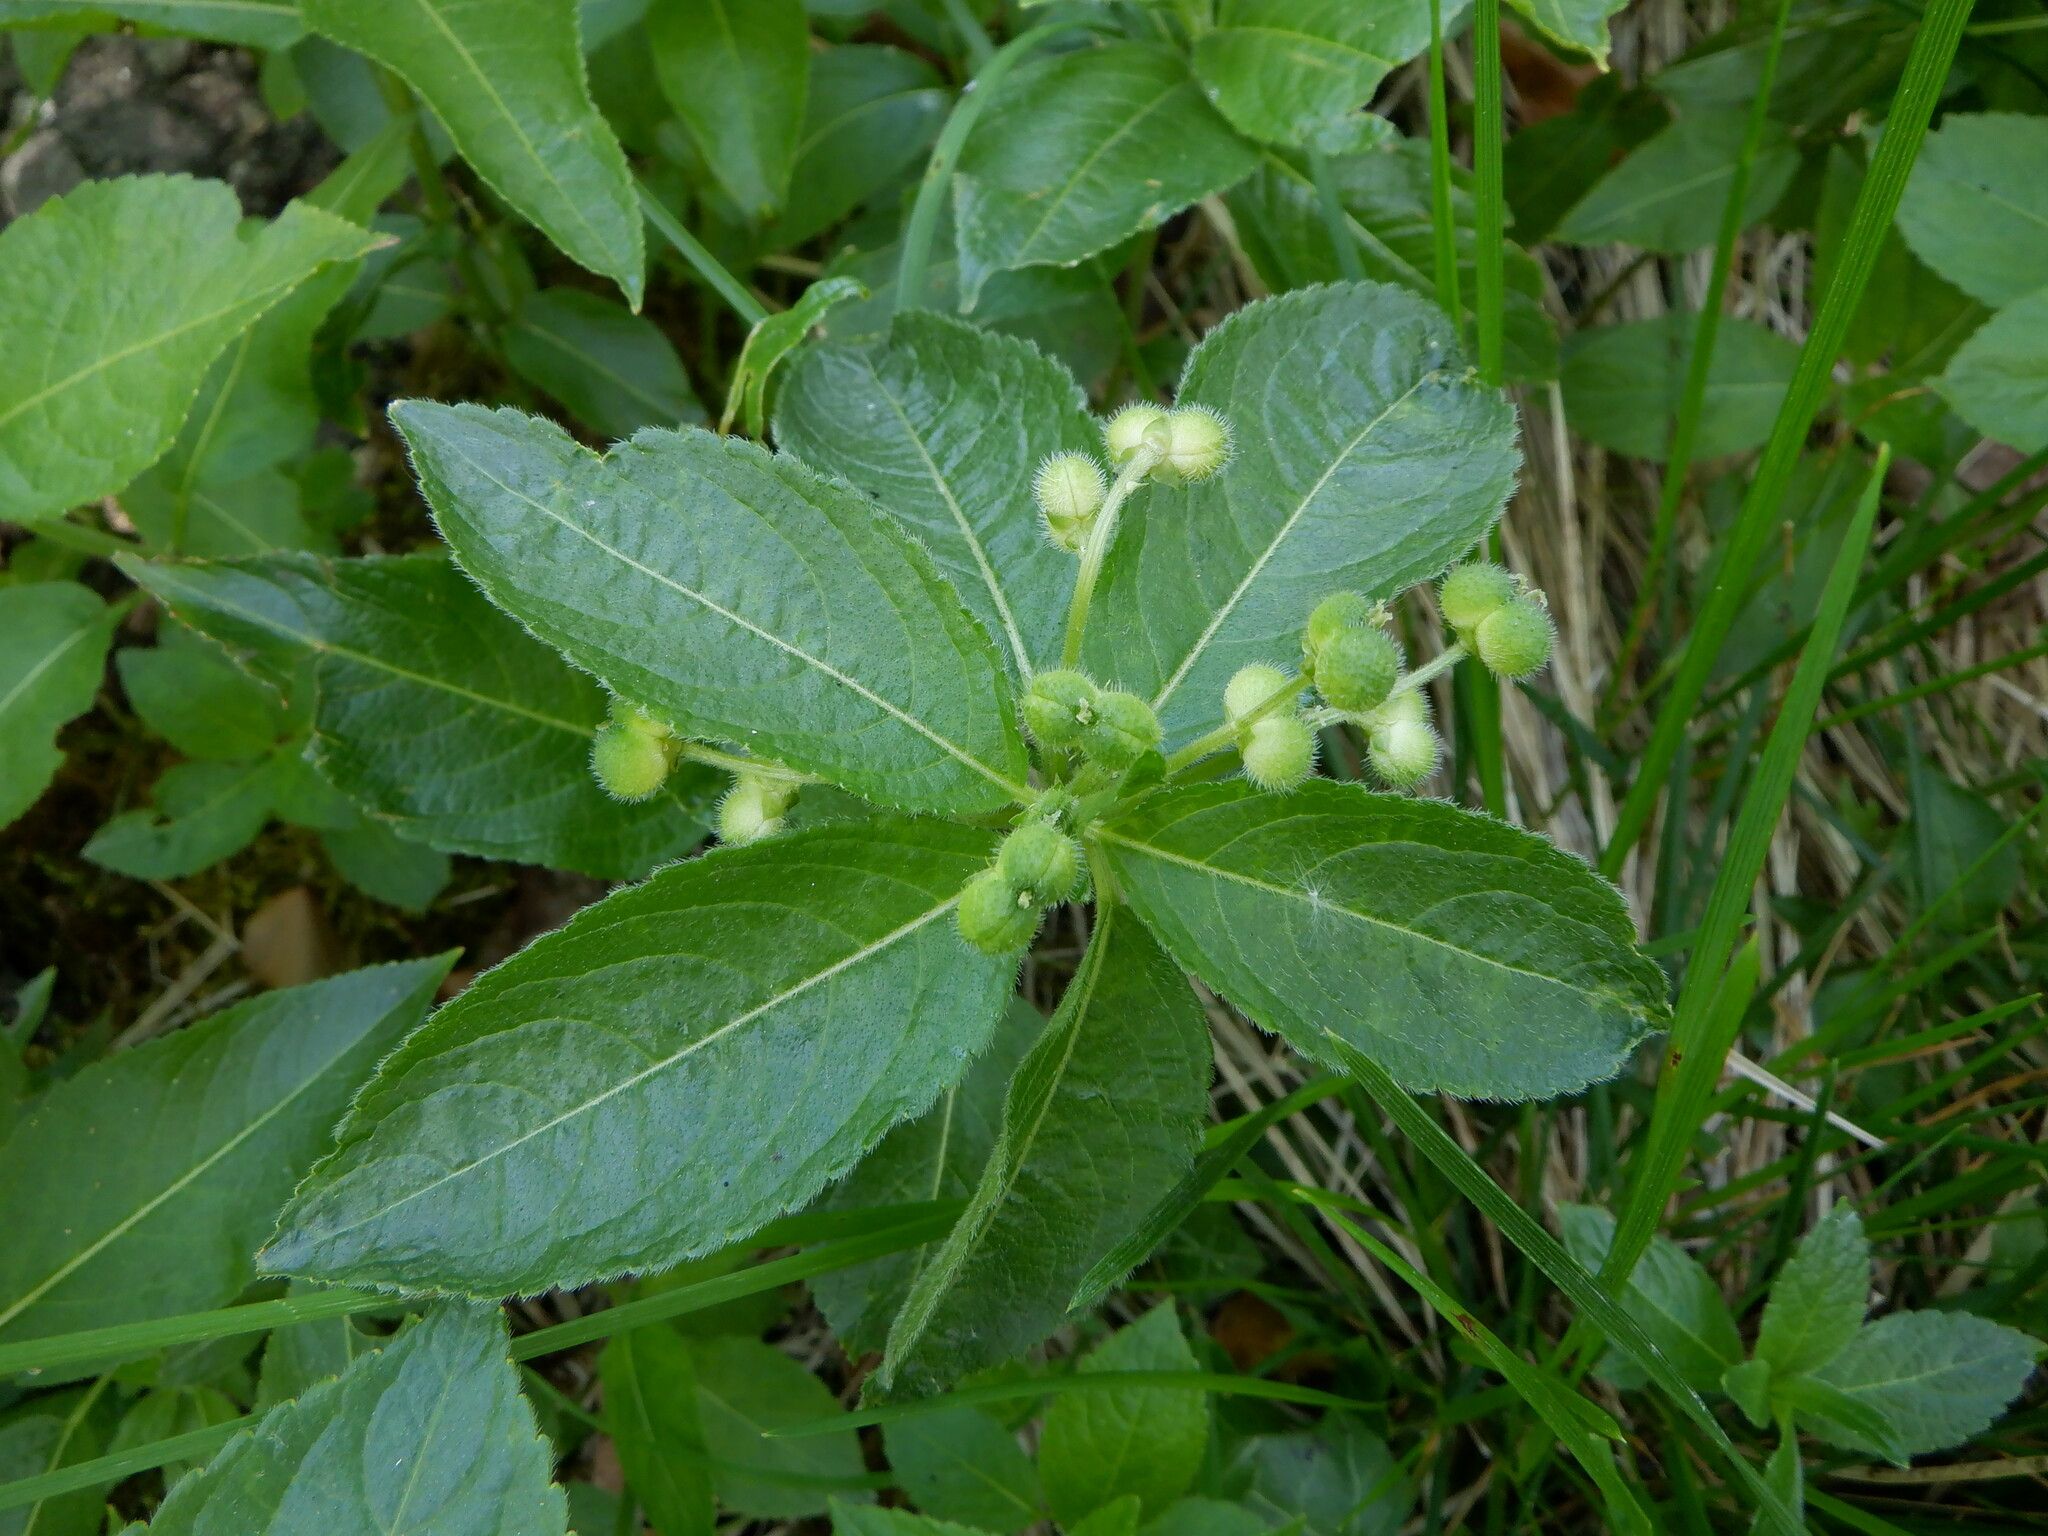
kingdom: Plantae
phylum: Tracheophyta
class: Magnoliopsida
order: Malpighiales
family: Euphorbiaceae
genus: Mercurialis
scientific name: Mercurialis perennis
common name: Dog mercury
